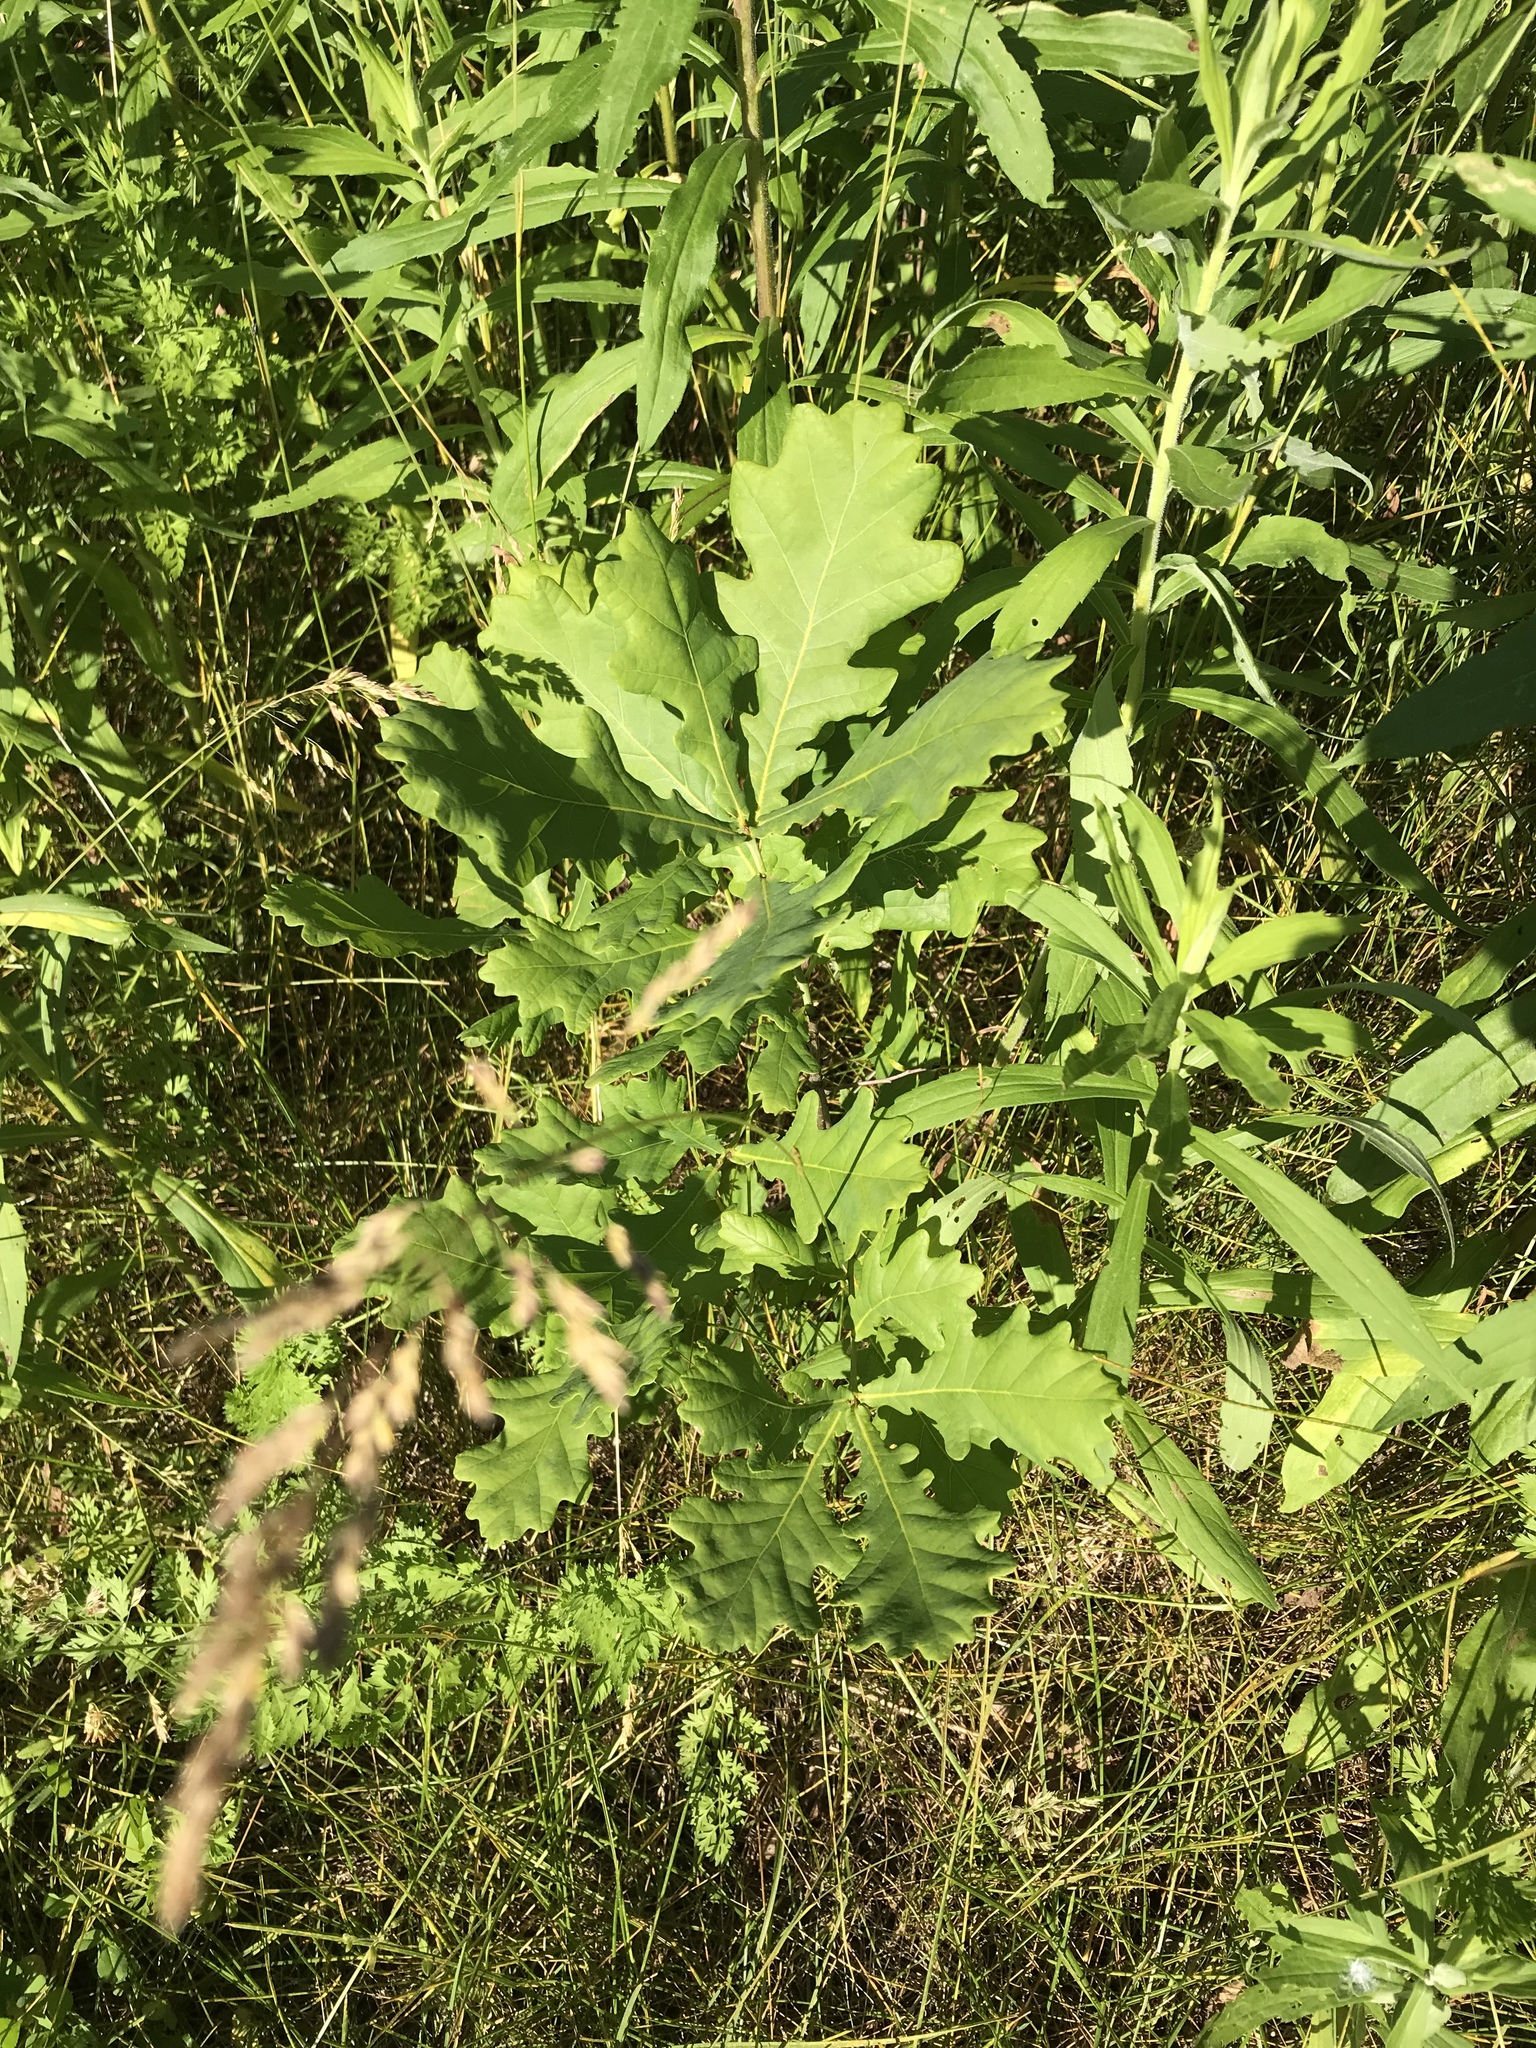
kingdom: Plantae
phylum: Tracheophyta
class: Magnoliopsida
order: Fagales
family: Fagaceae
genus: Quercus
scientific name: Quercus robur
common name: Pedunculate oak
